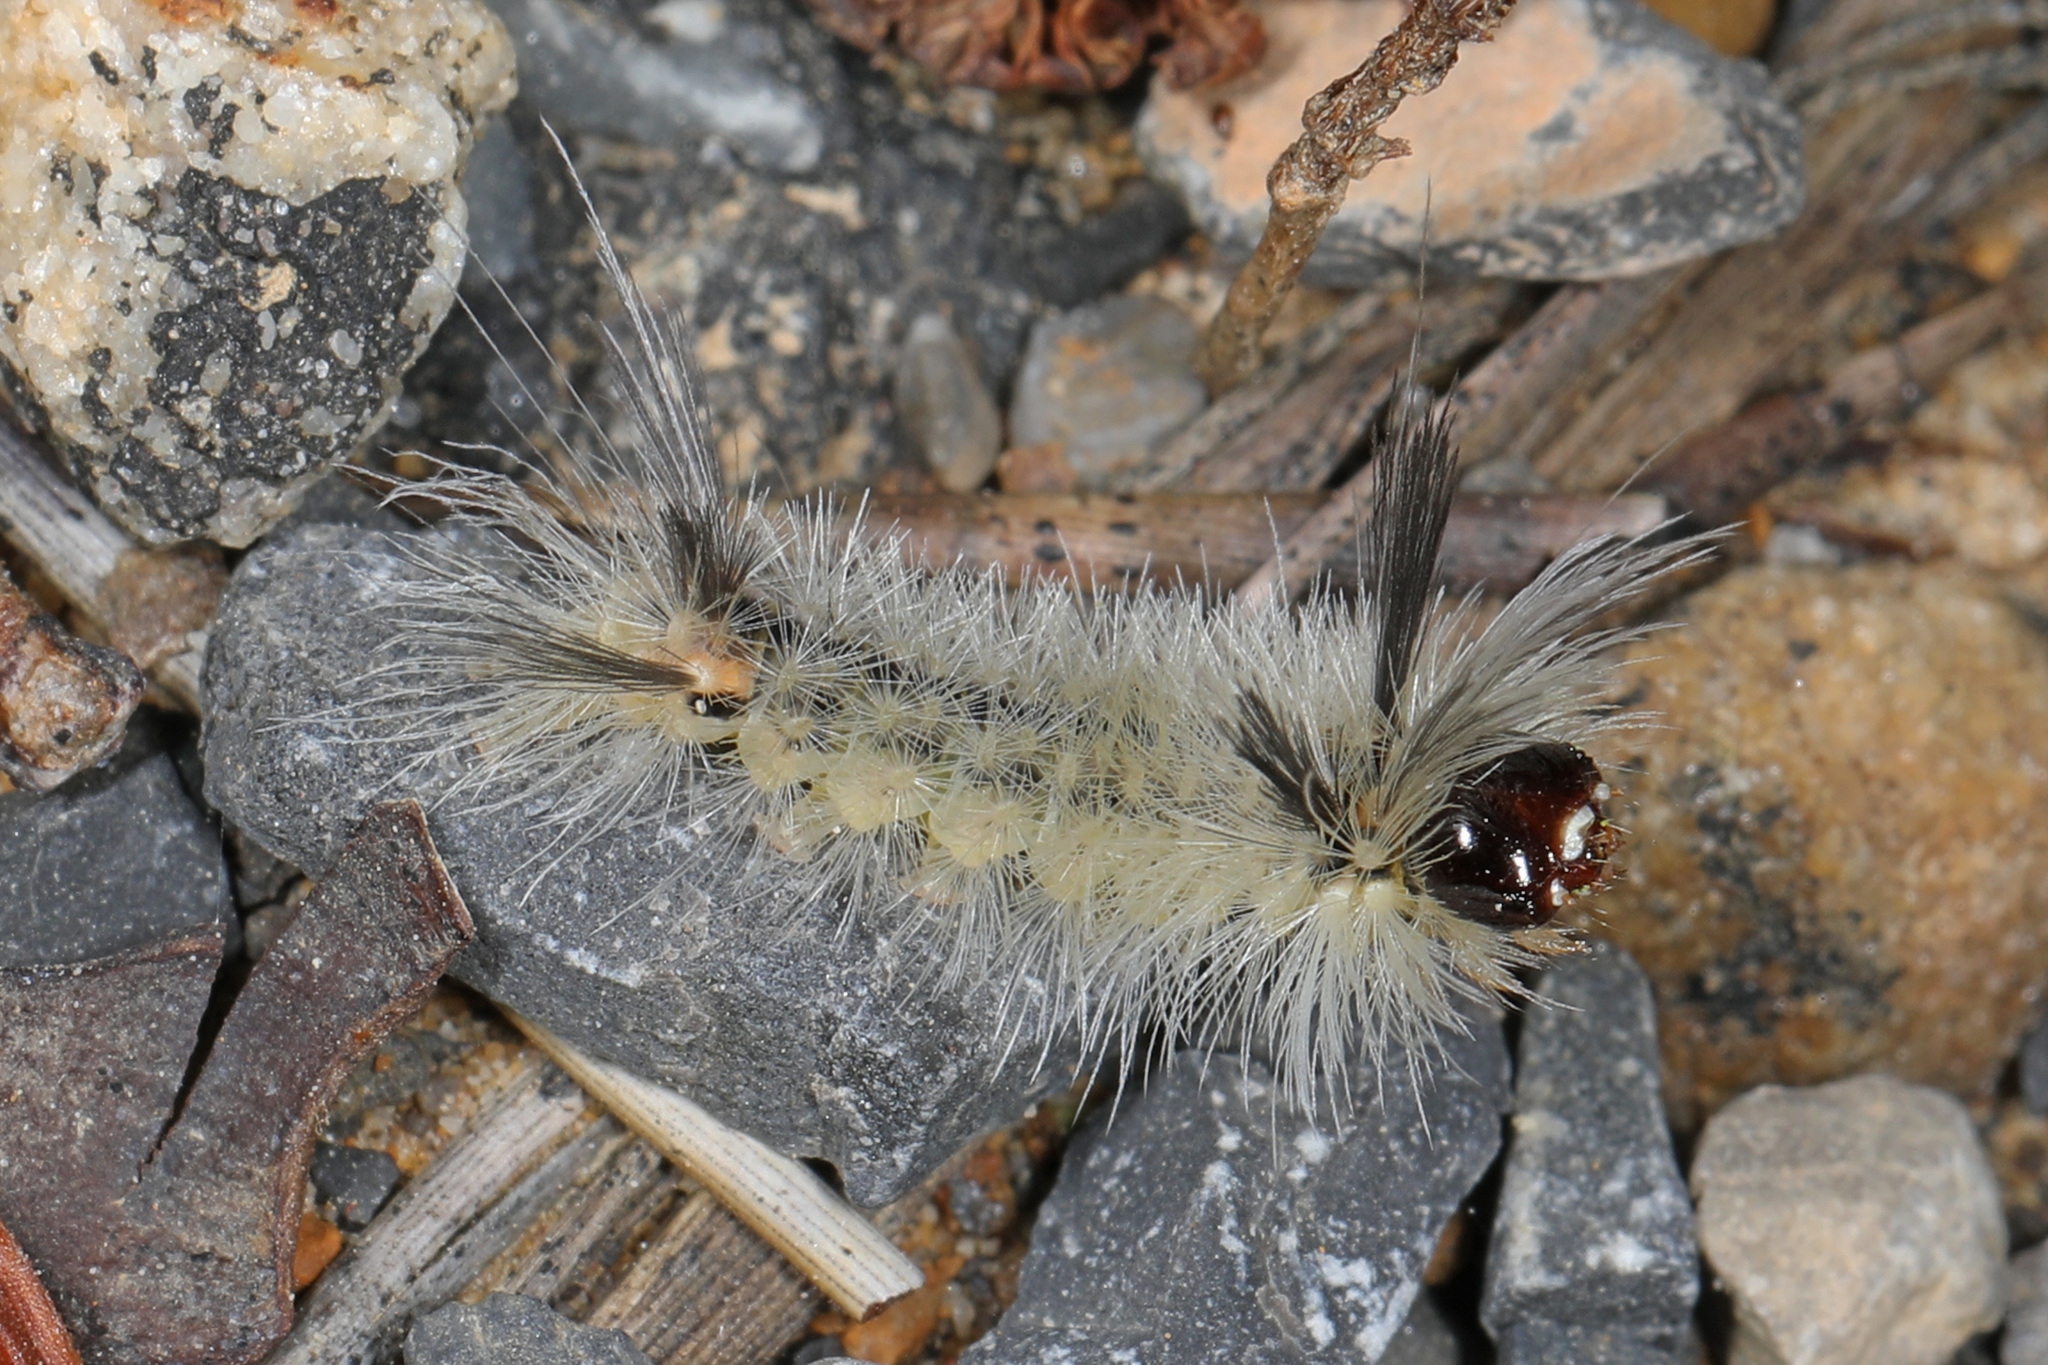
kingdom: Animalia
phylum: Arthropoda
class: Insecta
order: Lepidoptera
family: Erebidae
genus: Halysidota
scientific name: Halysidota tessellaris
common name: Banded tussock moth
